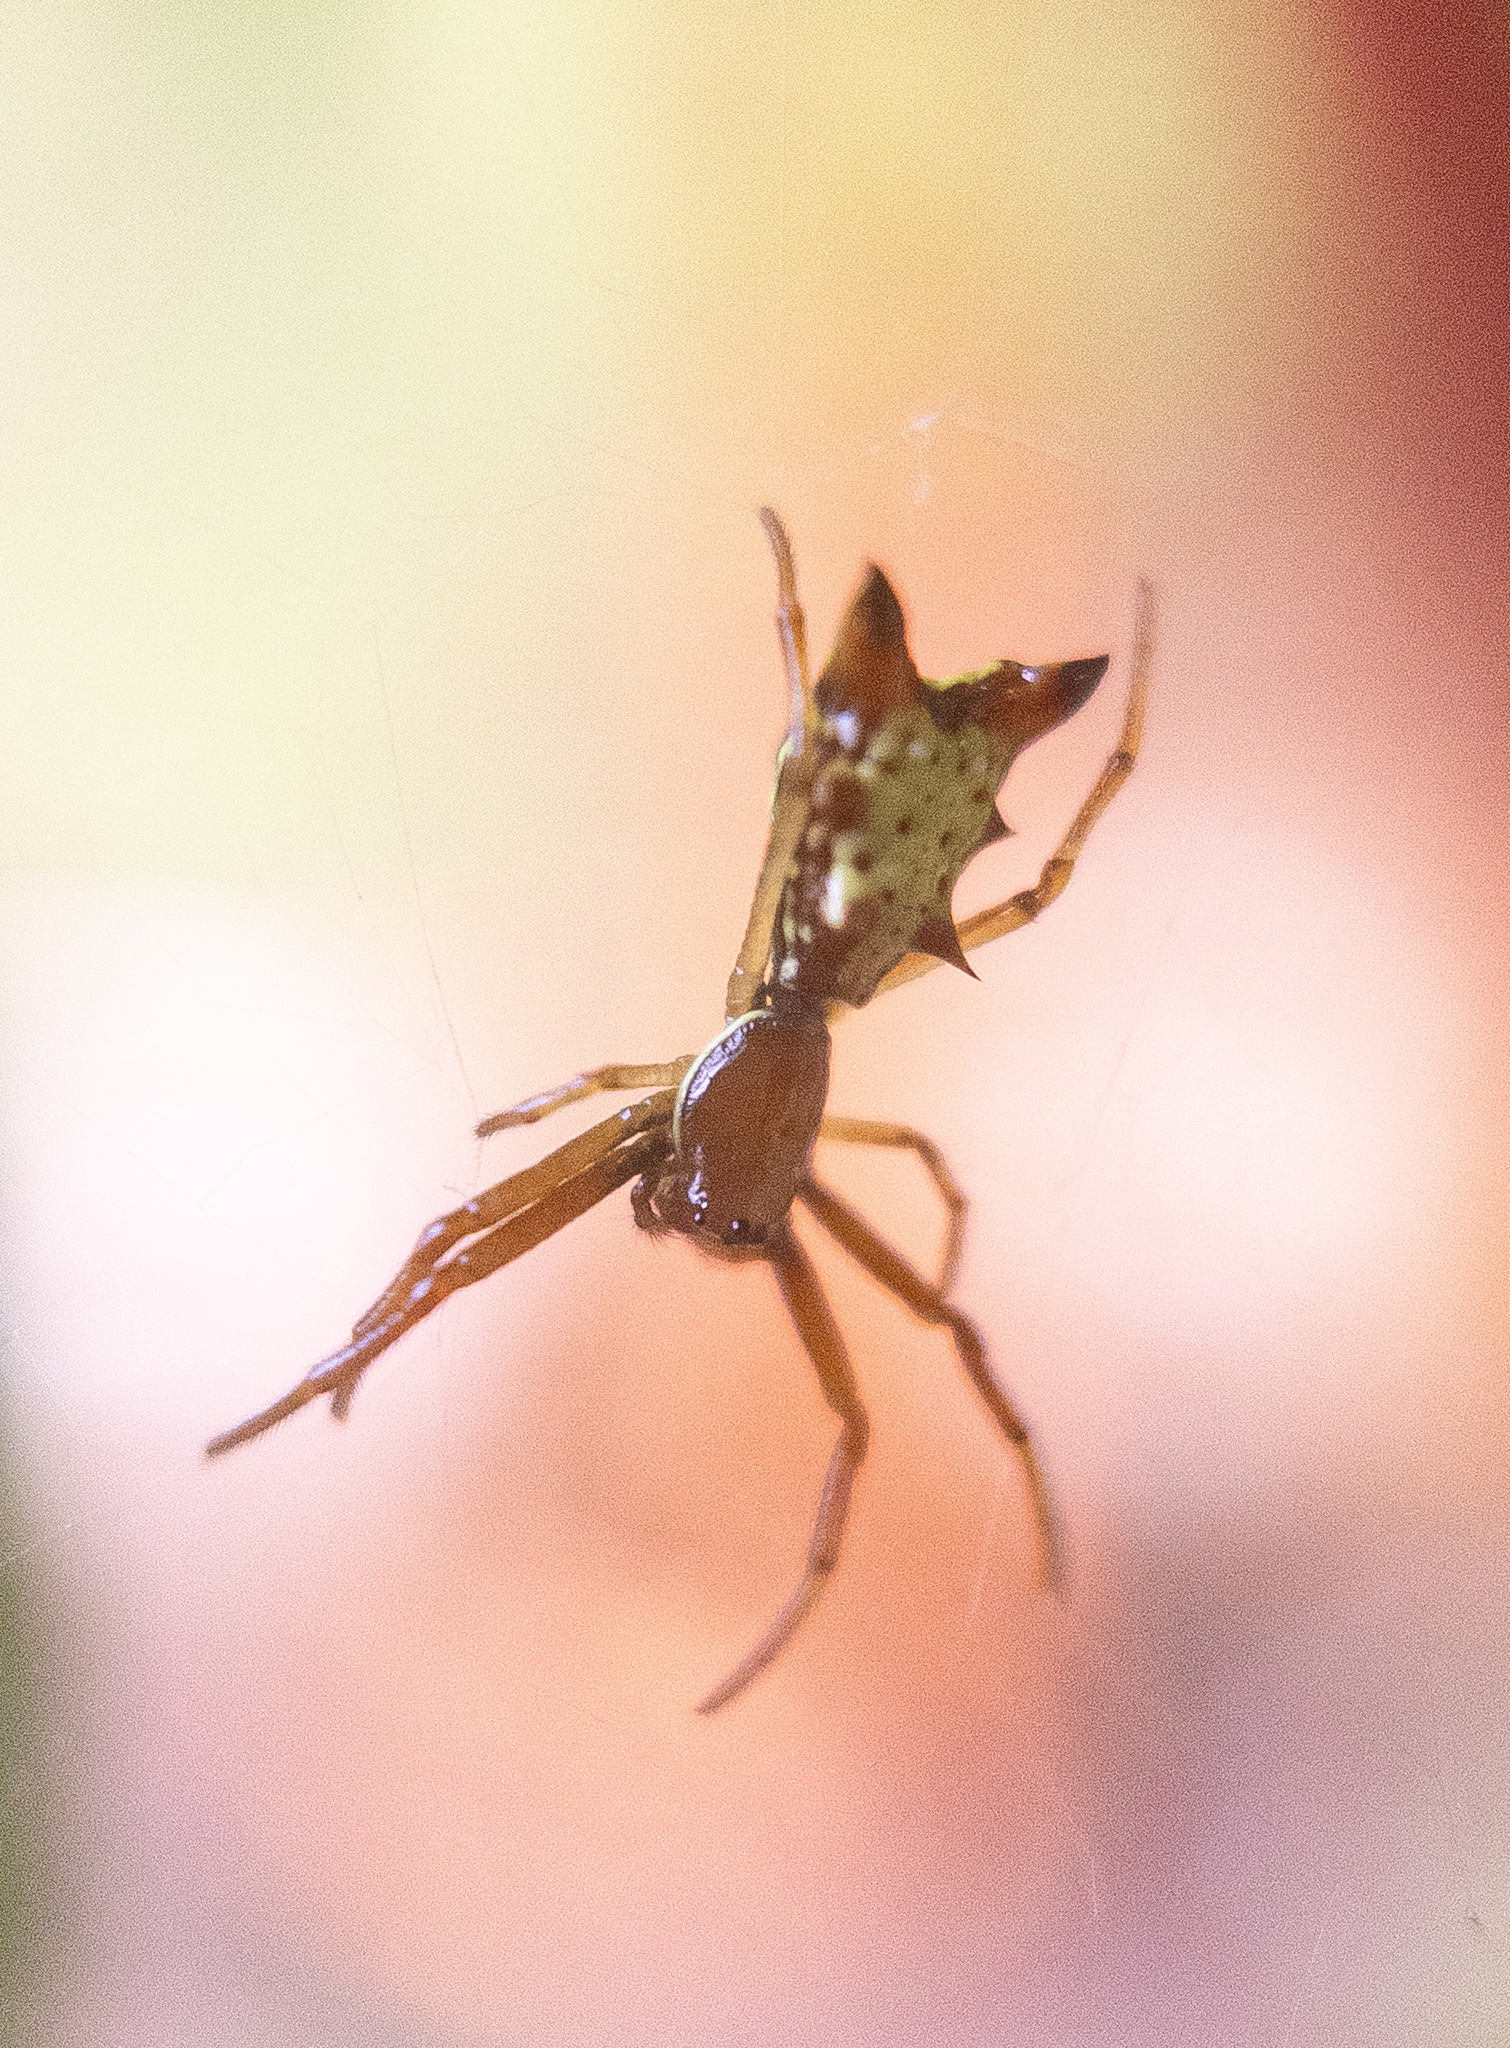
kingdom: Animalia
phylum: Arthropoda
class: Arachnida
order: Araneae
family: Araneidae
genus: Micrathena
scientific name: Micrathena sagittata
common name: Orb weavers
